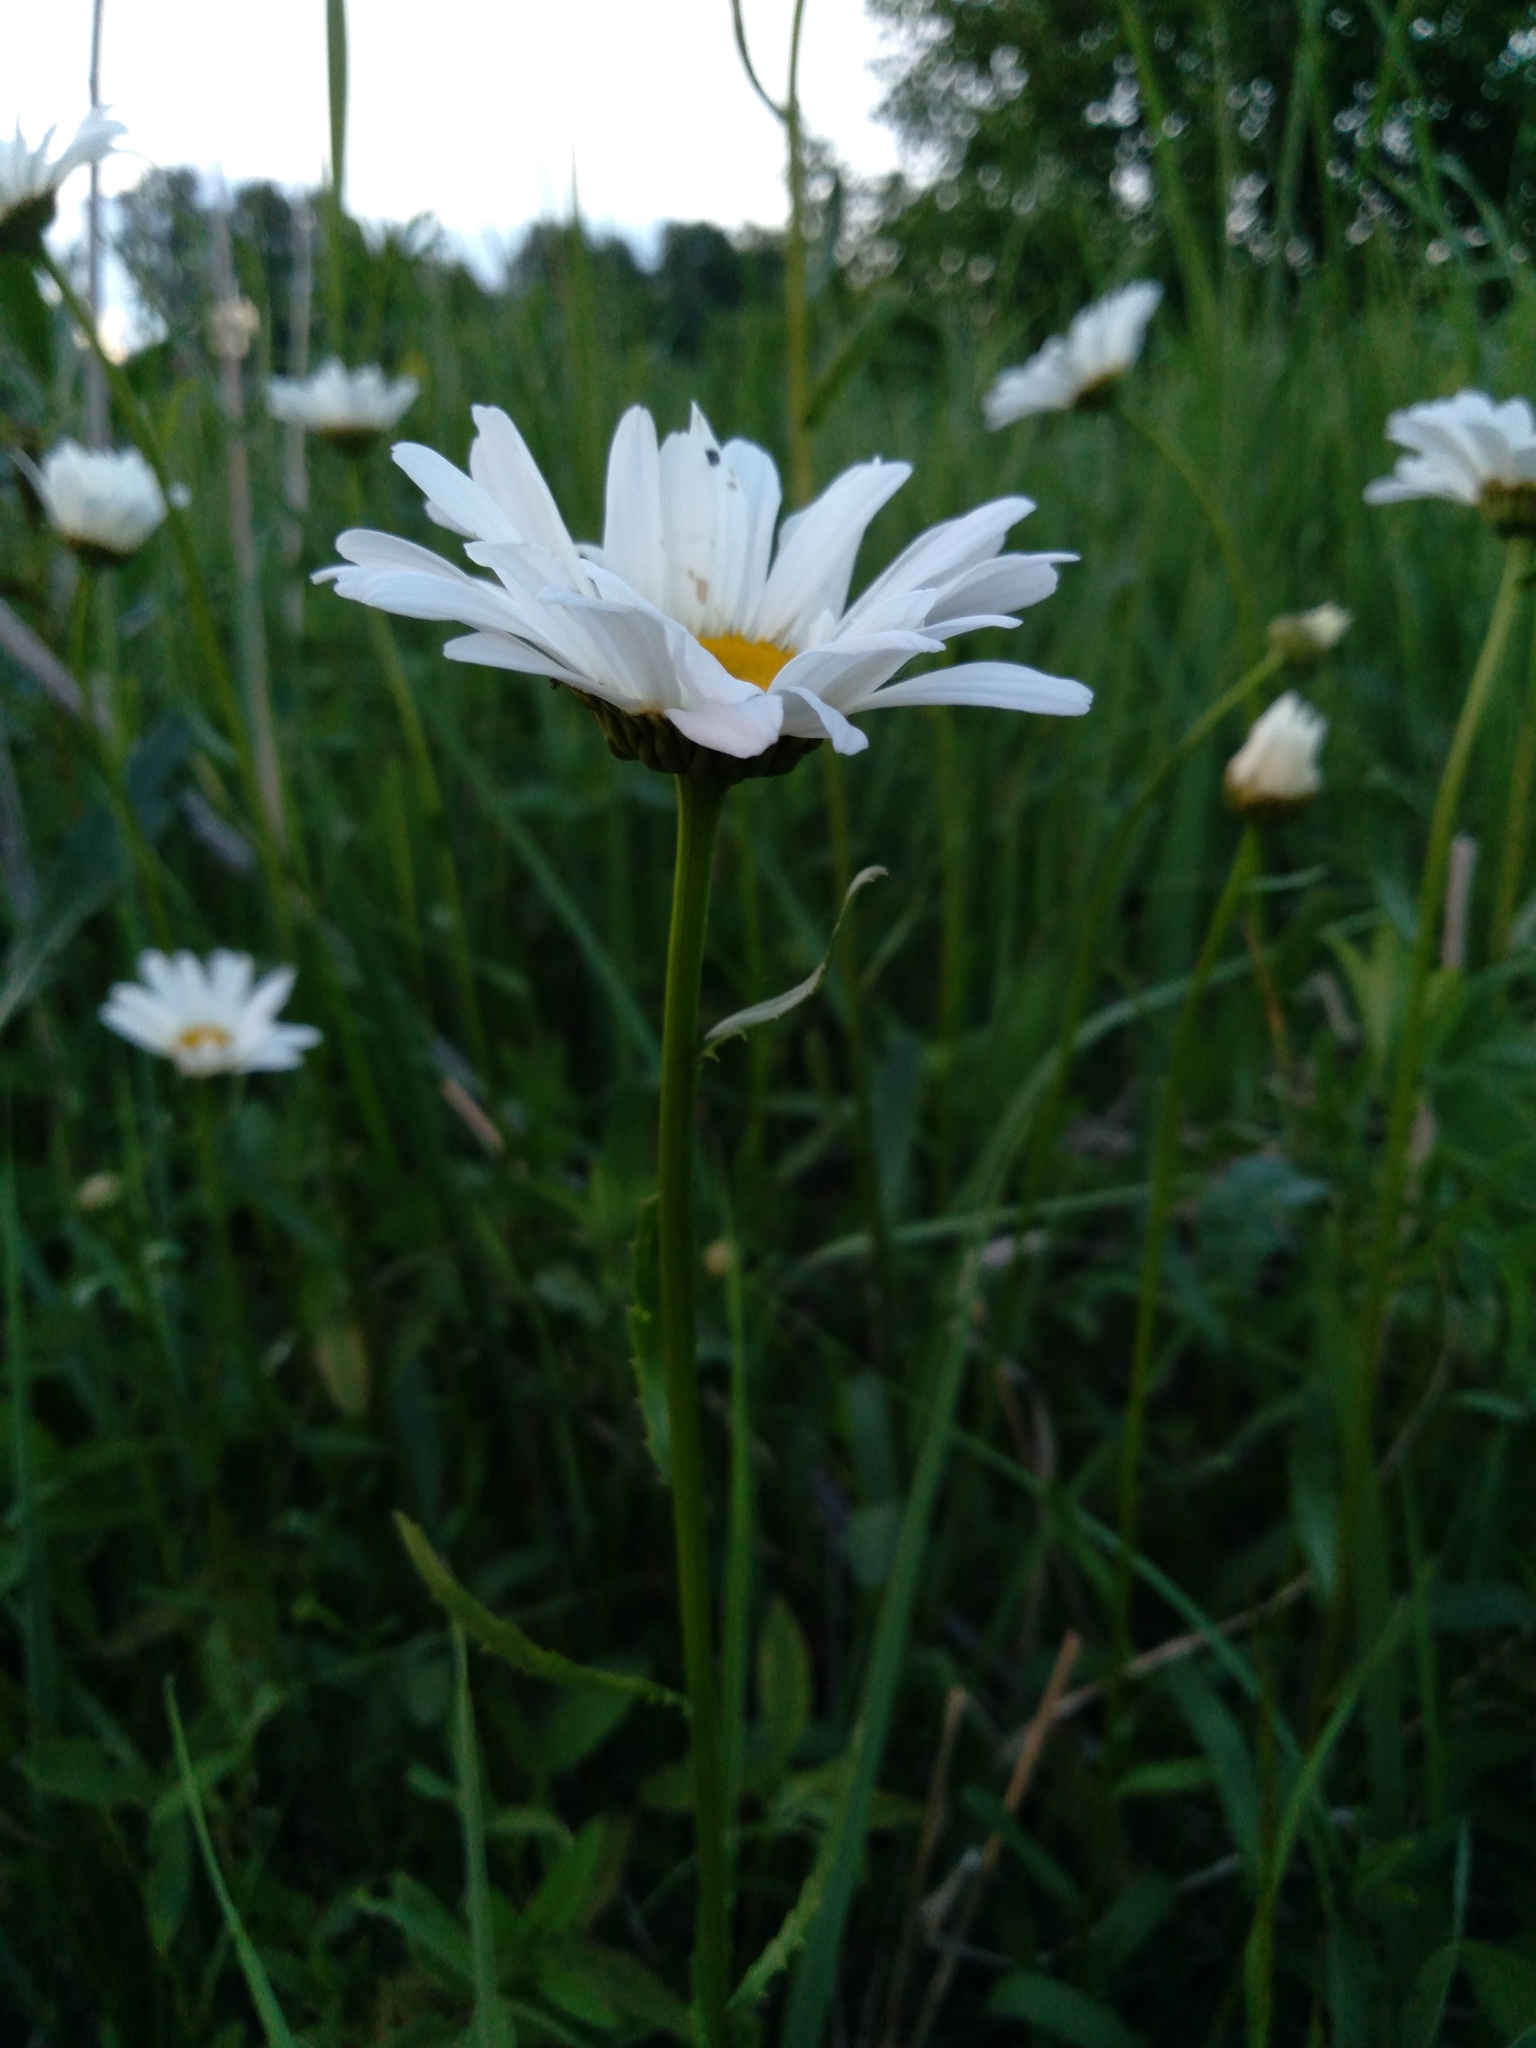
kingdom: Plantae
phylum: Tracheophyta
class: Magnoliopsida
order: Asterales
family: Asteraceae
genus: Leucanthemum
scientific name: Leucanthemum vulgare
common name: Oxeye daisy
